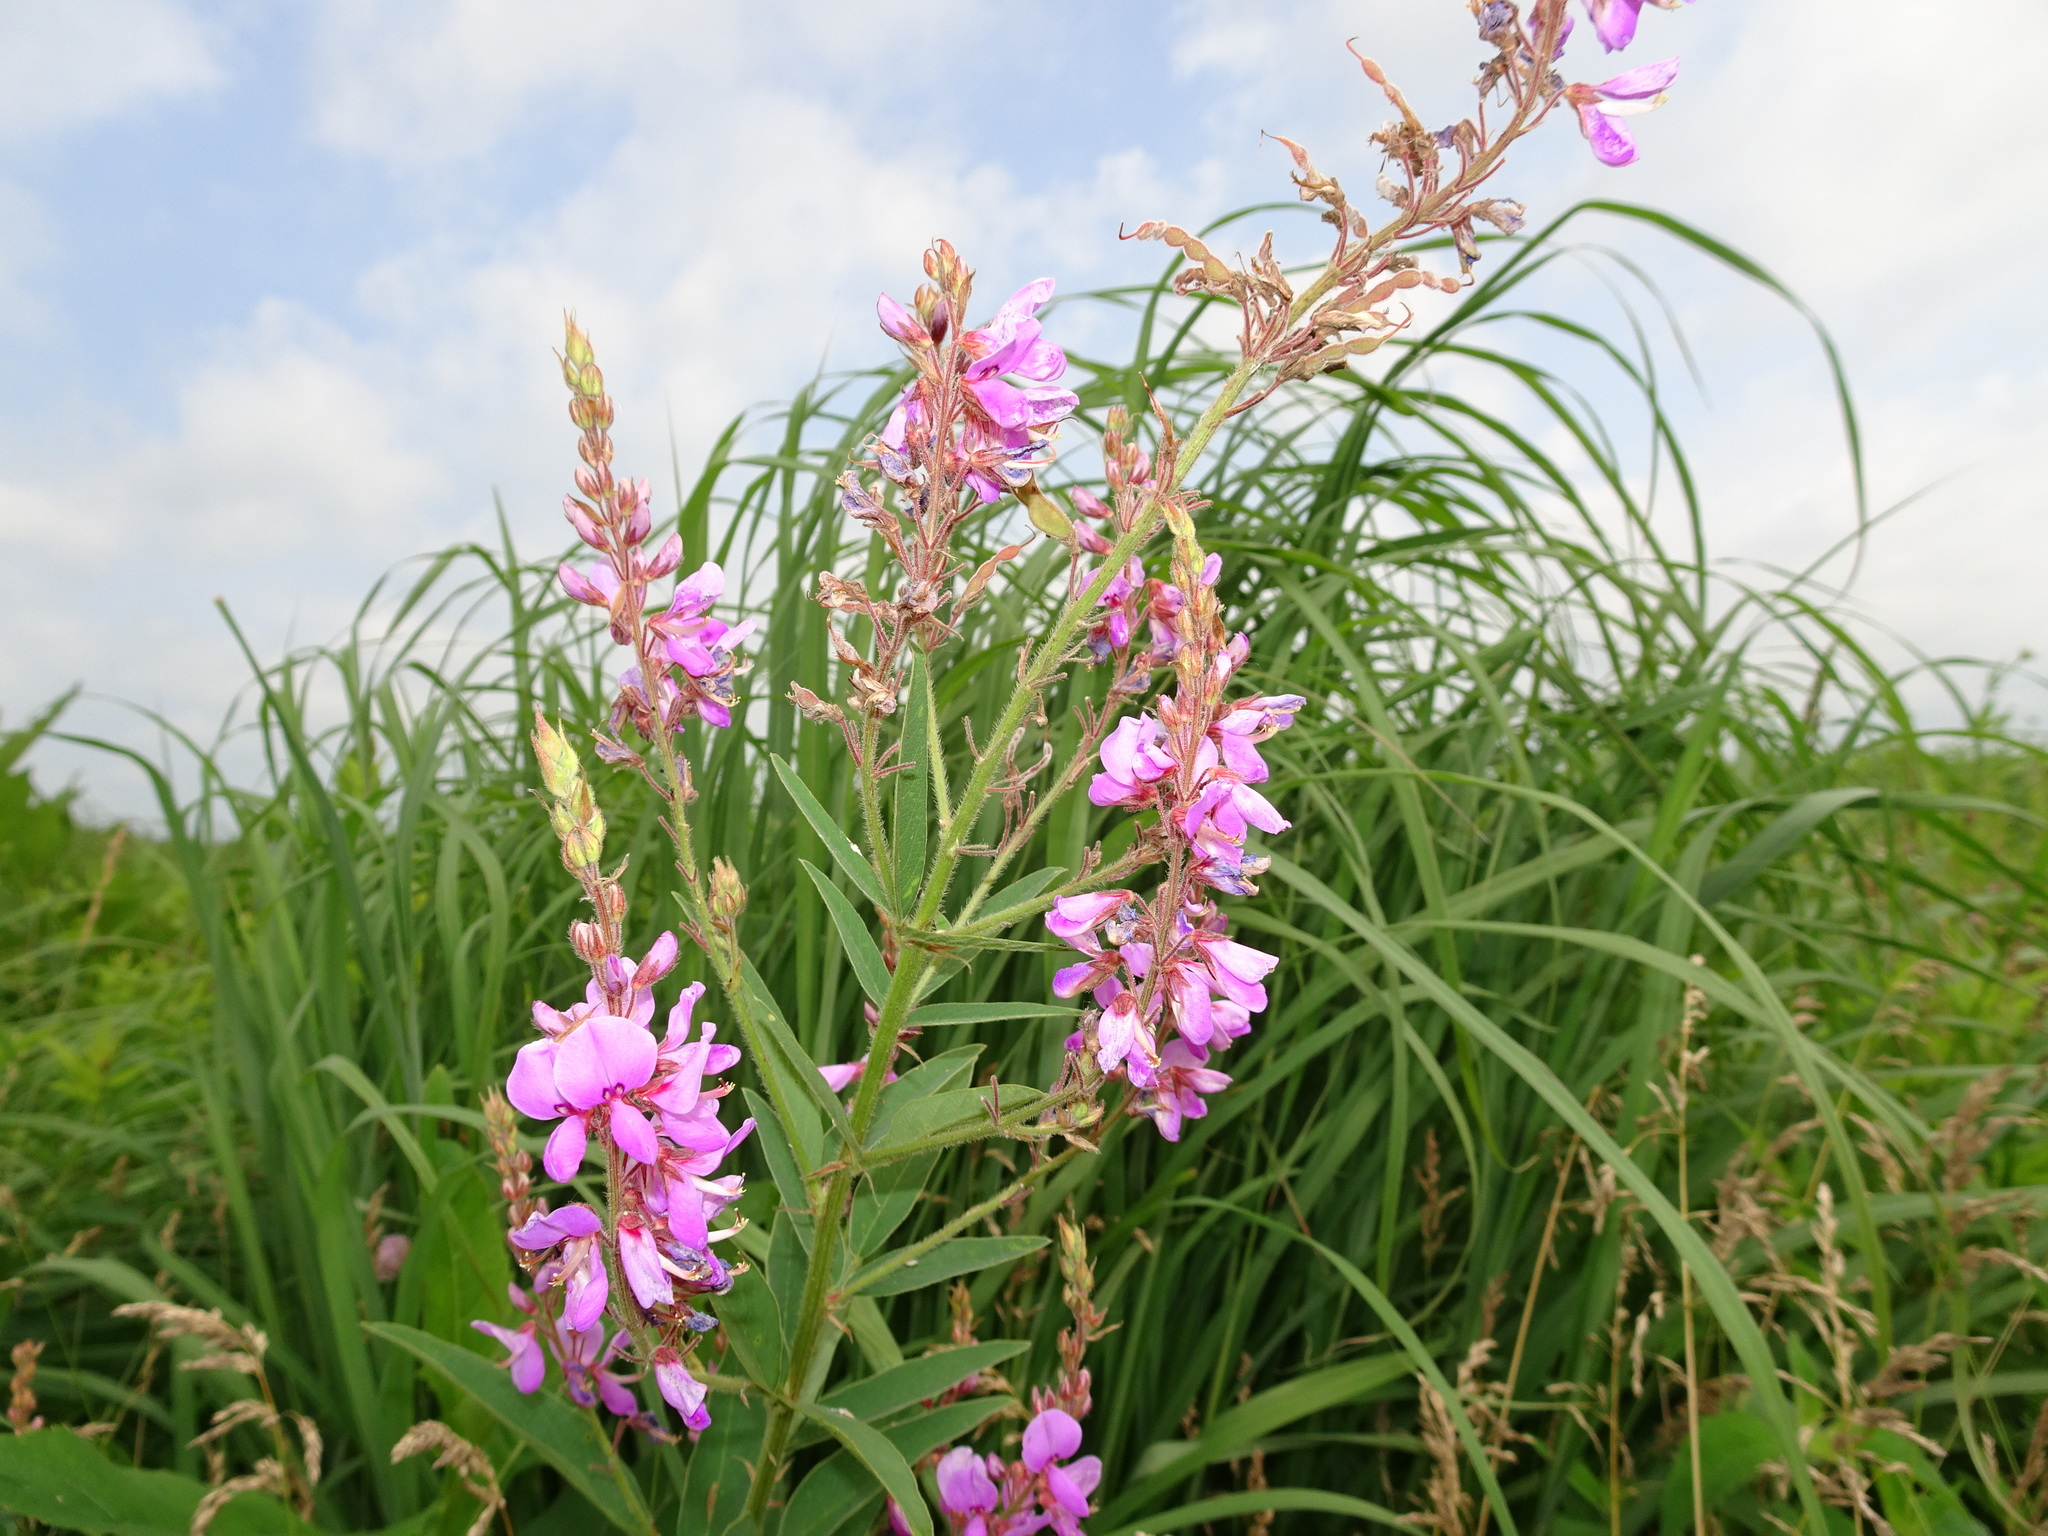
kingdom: Plantae
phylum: Tracheophyta
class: Magnoliopsida
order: Fabales
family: Fabaceae
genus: Desmodium
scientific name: Desmodium canadense
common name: Canada tick-trefoil
